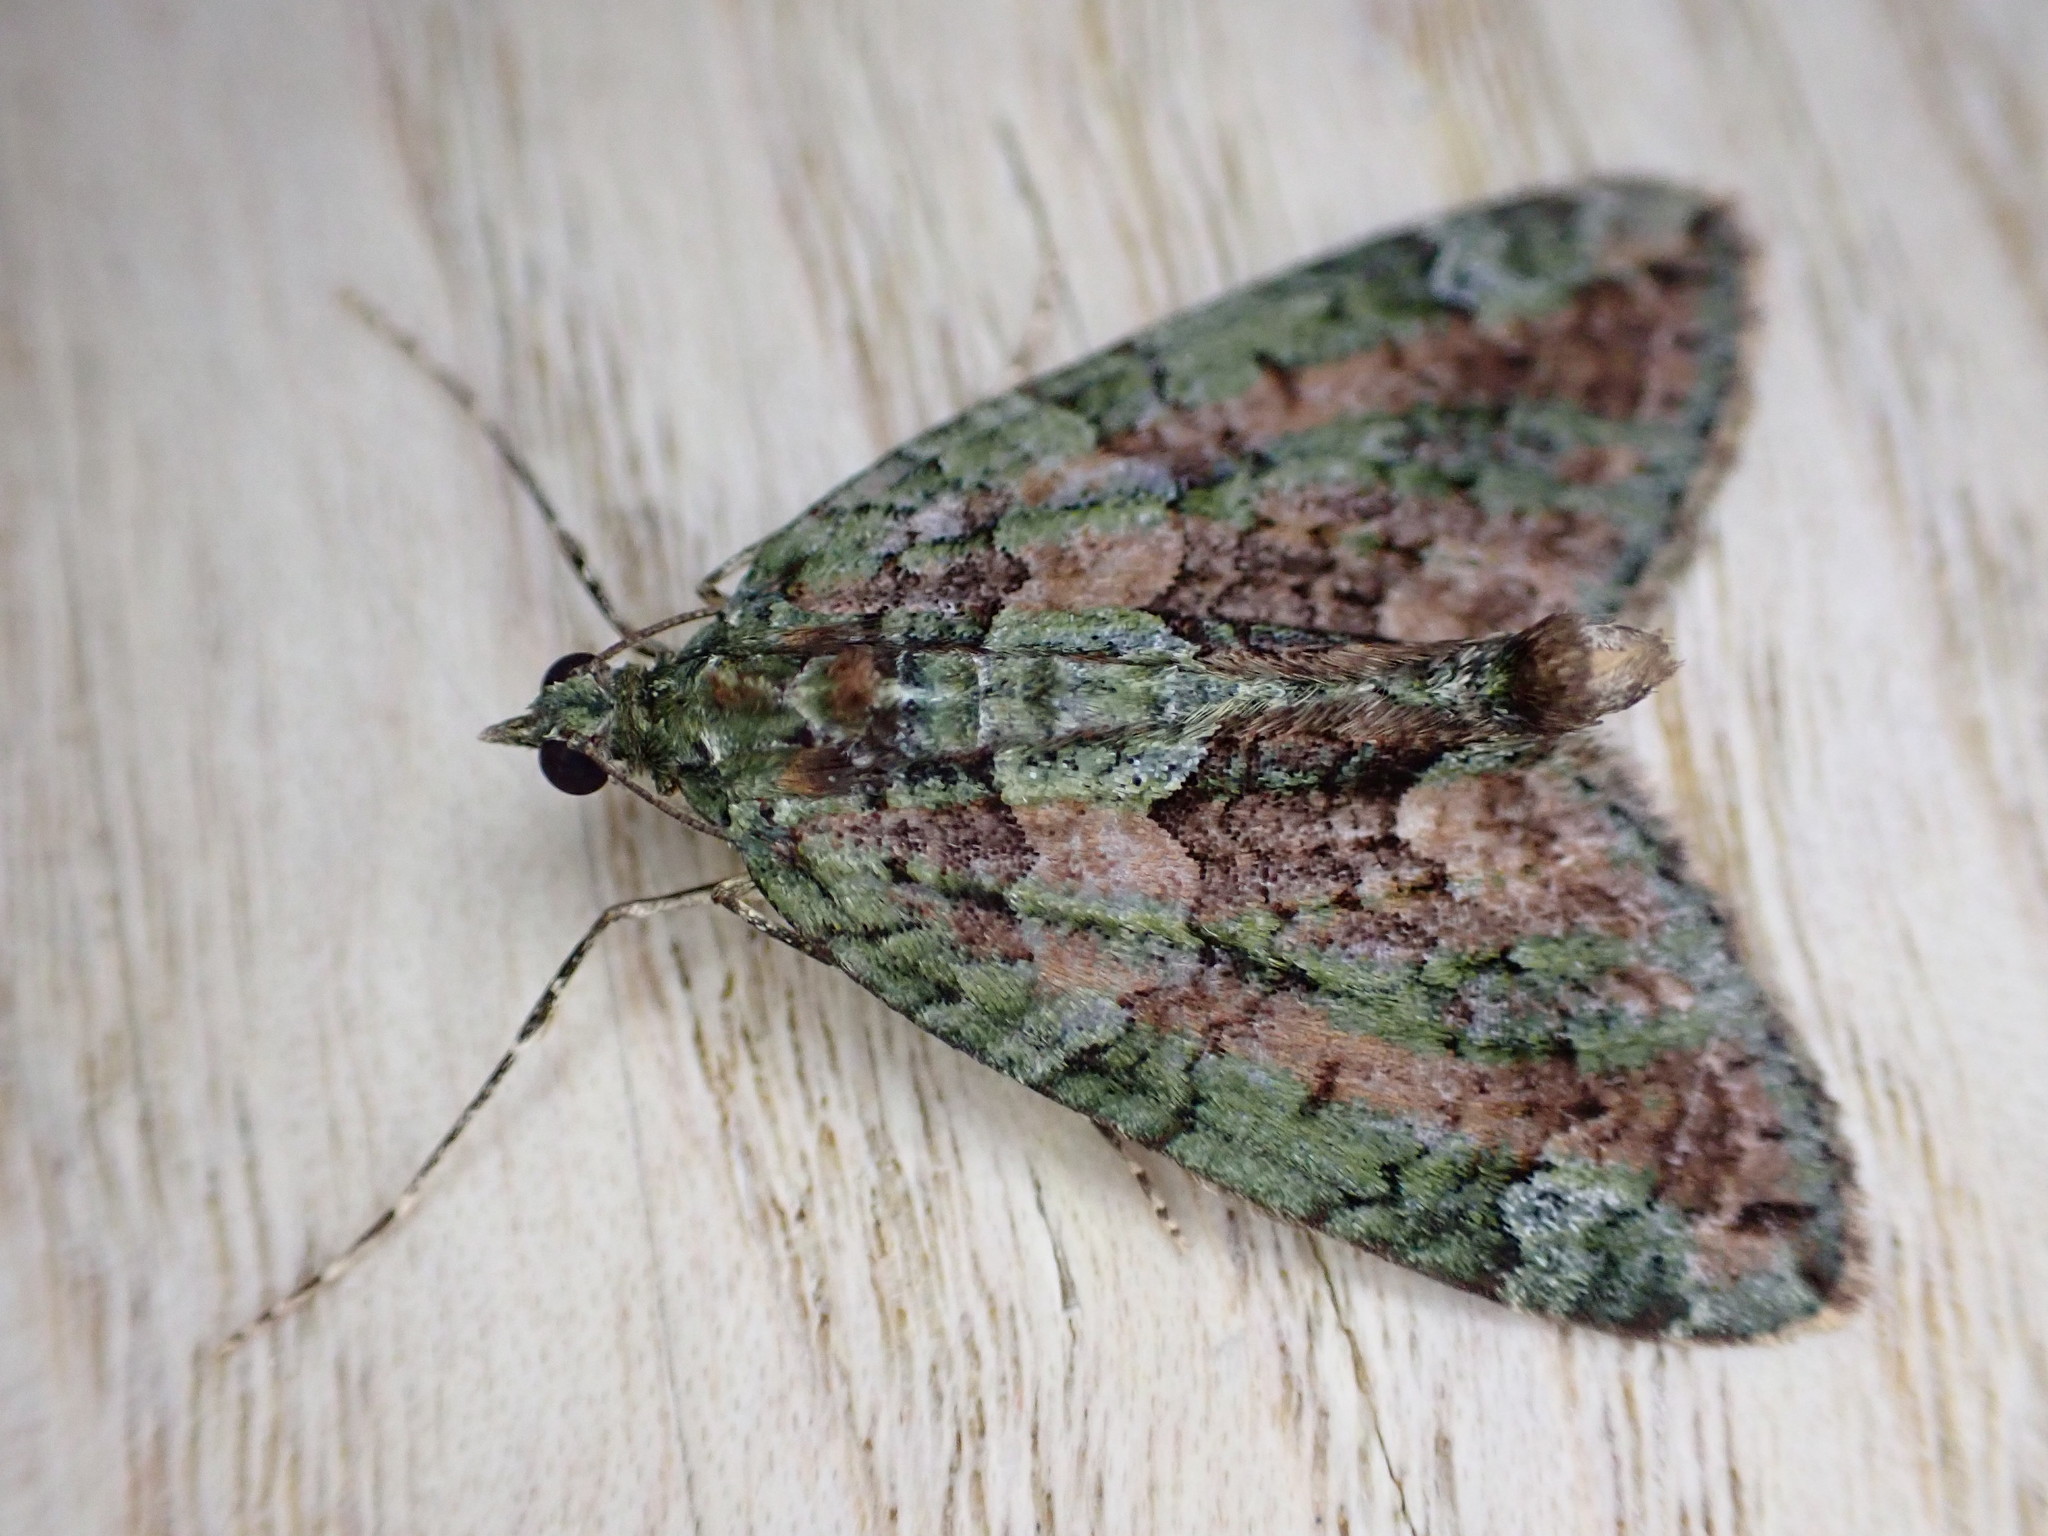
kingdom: Animalia
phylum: Arthropoda
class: Insecta
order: Lepidoptera
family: Geometridae
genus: Chloroclysta
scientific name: Chloroclysta siterata
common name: Red-green carpet
